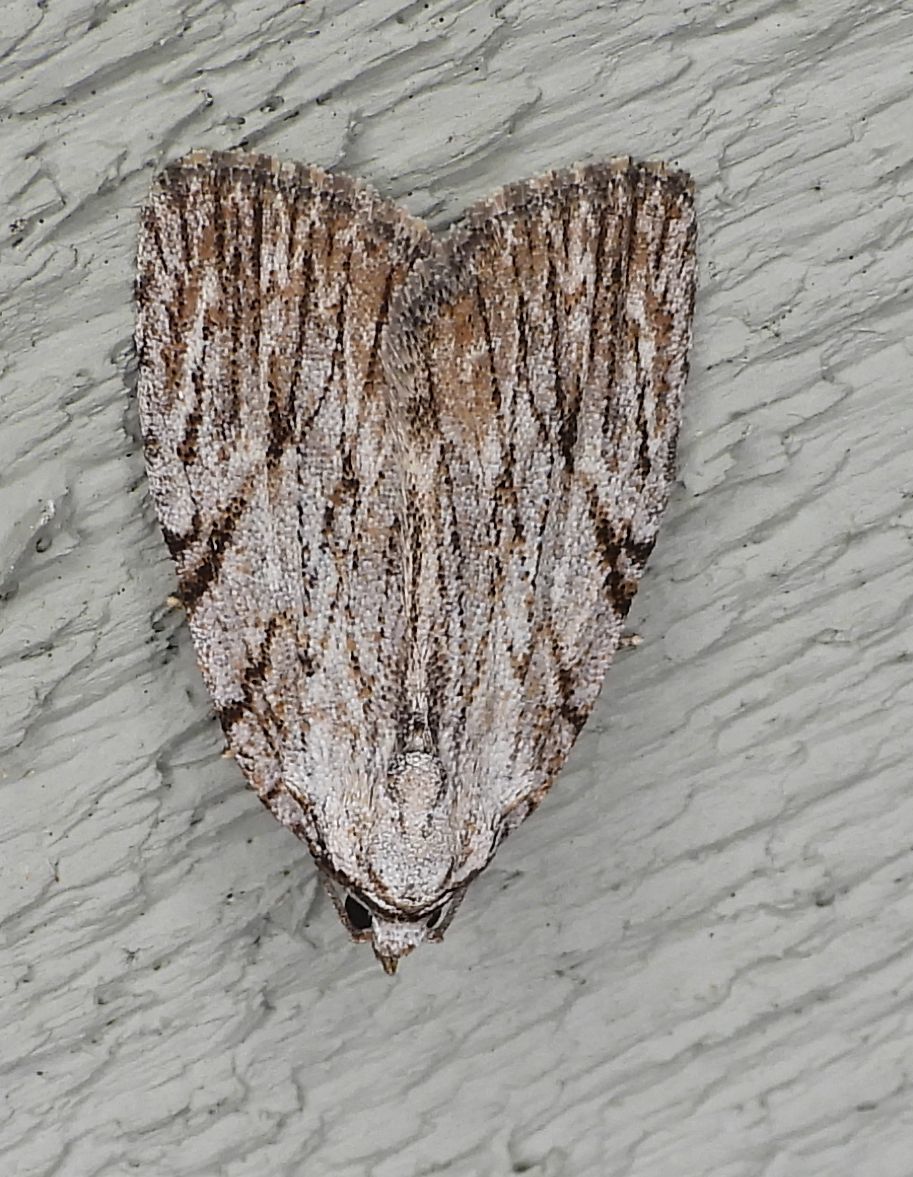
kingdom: Animalia
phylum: Arthropoda
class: Insecta
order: Lepidoptera
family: Noctuidae
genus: Balsa
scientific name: Balsa tristrigella
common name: Three-lined balsa moth
